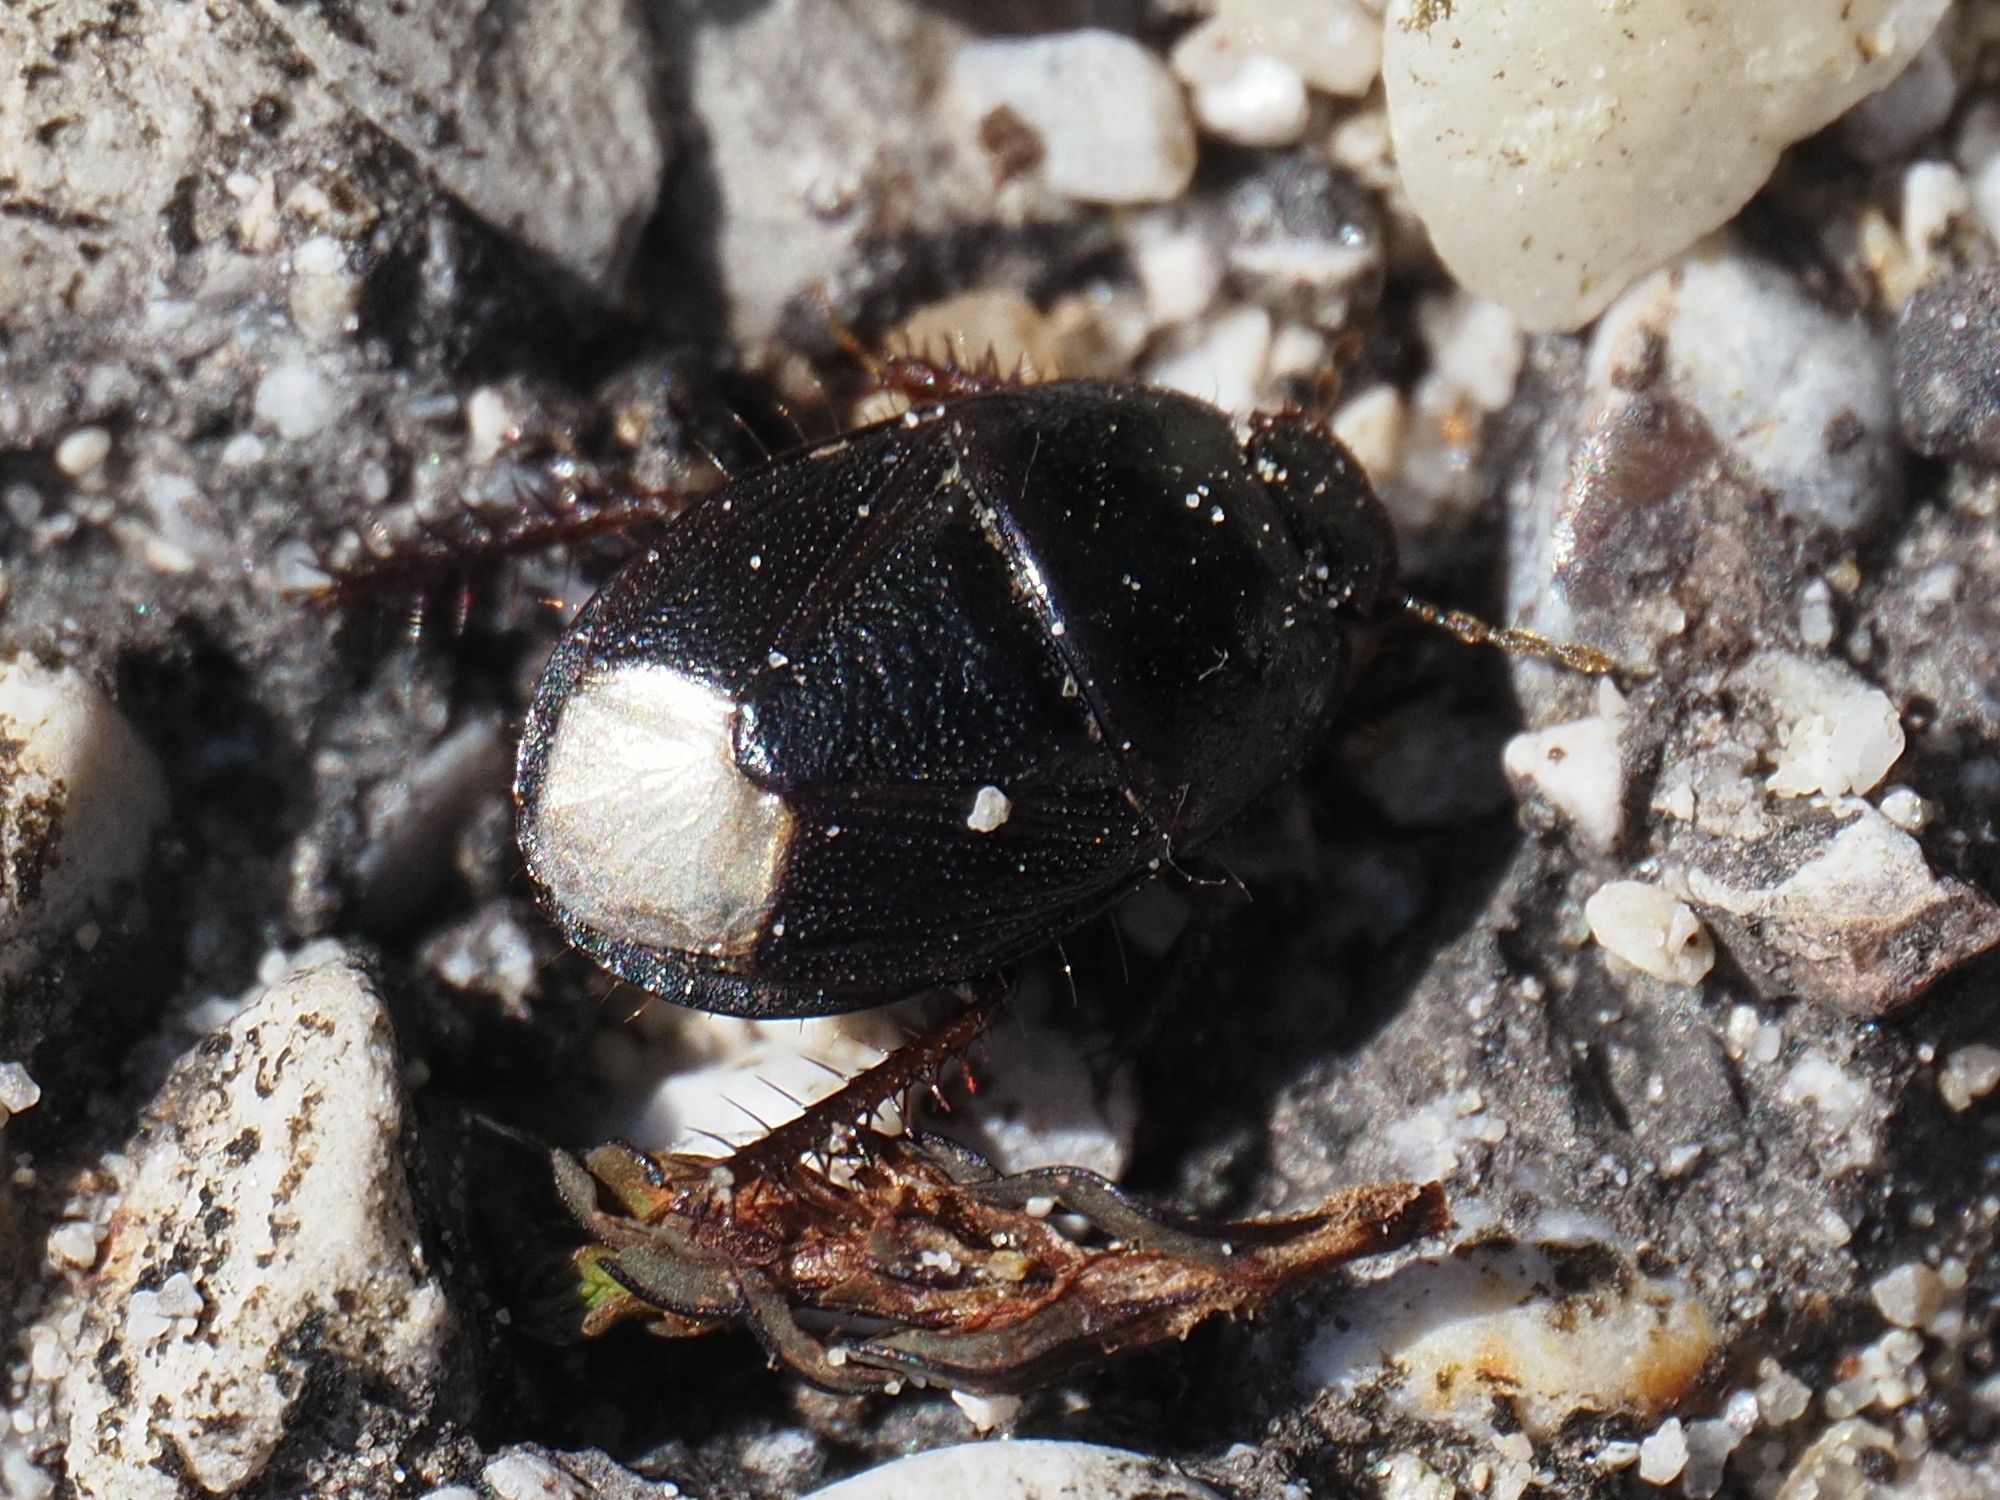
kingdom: Animalia
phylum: Arthropoda
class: Insecta
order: Hemiptera
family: Cydnidae
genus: Microporus
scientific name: Microporus nigrita
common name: Burrower bug
